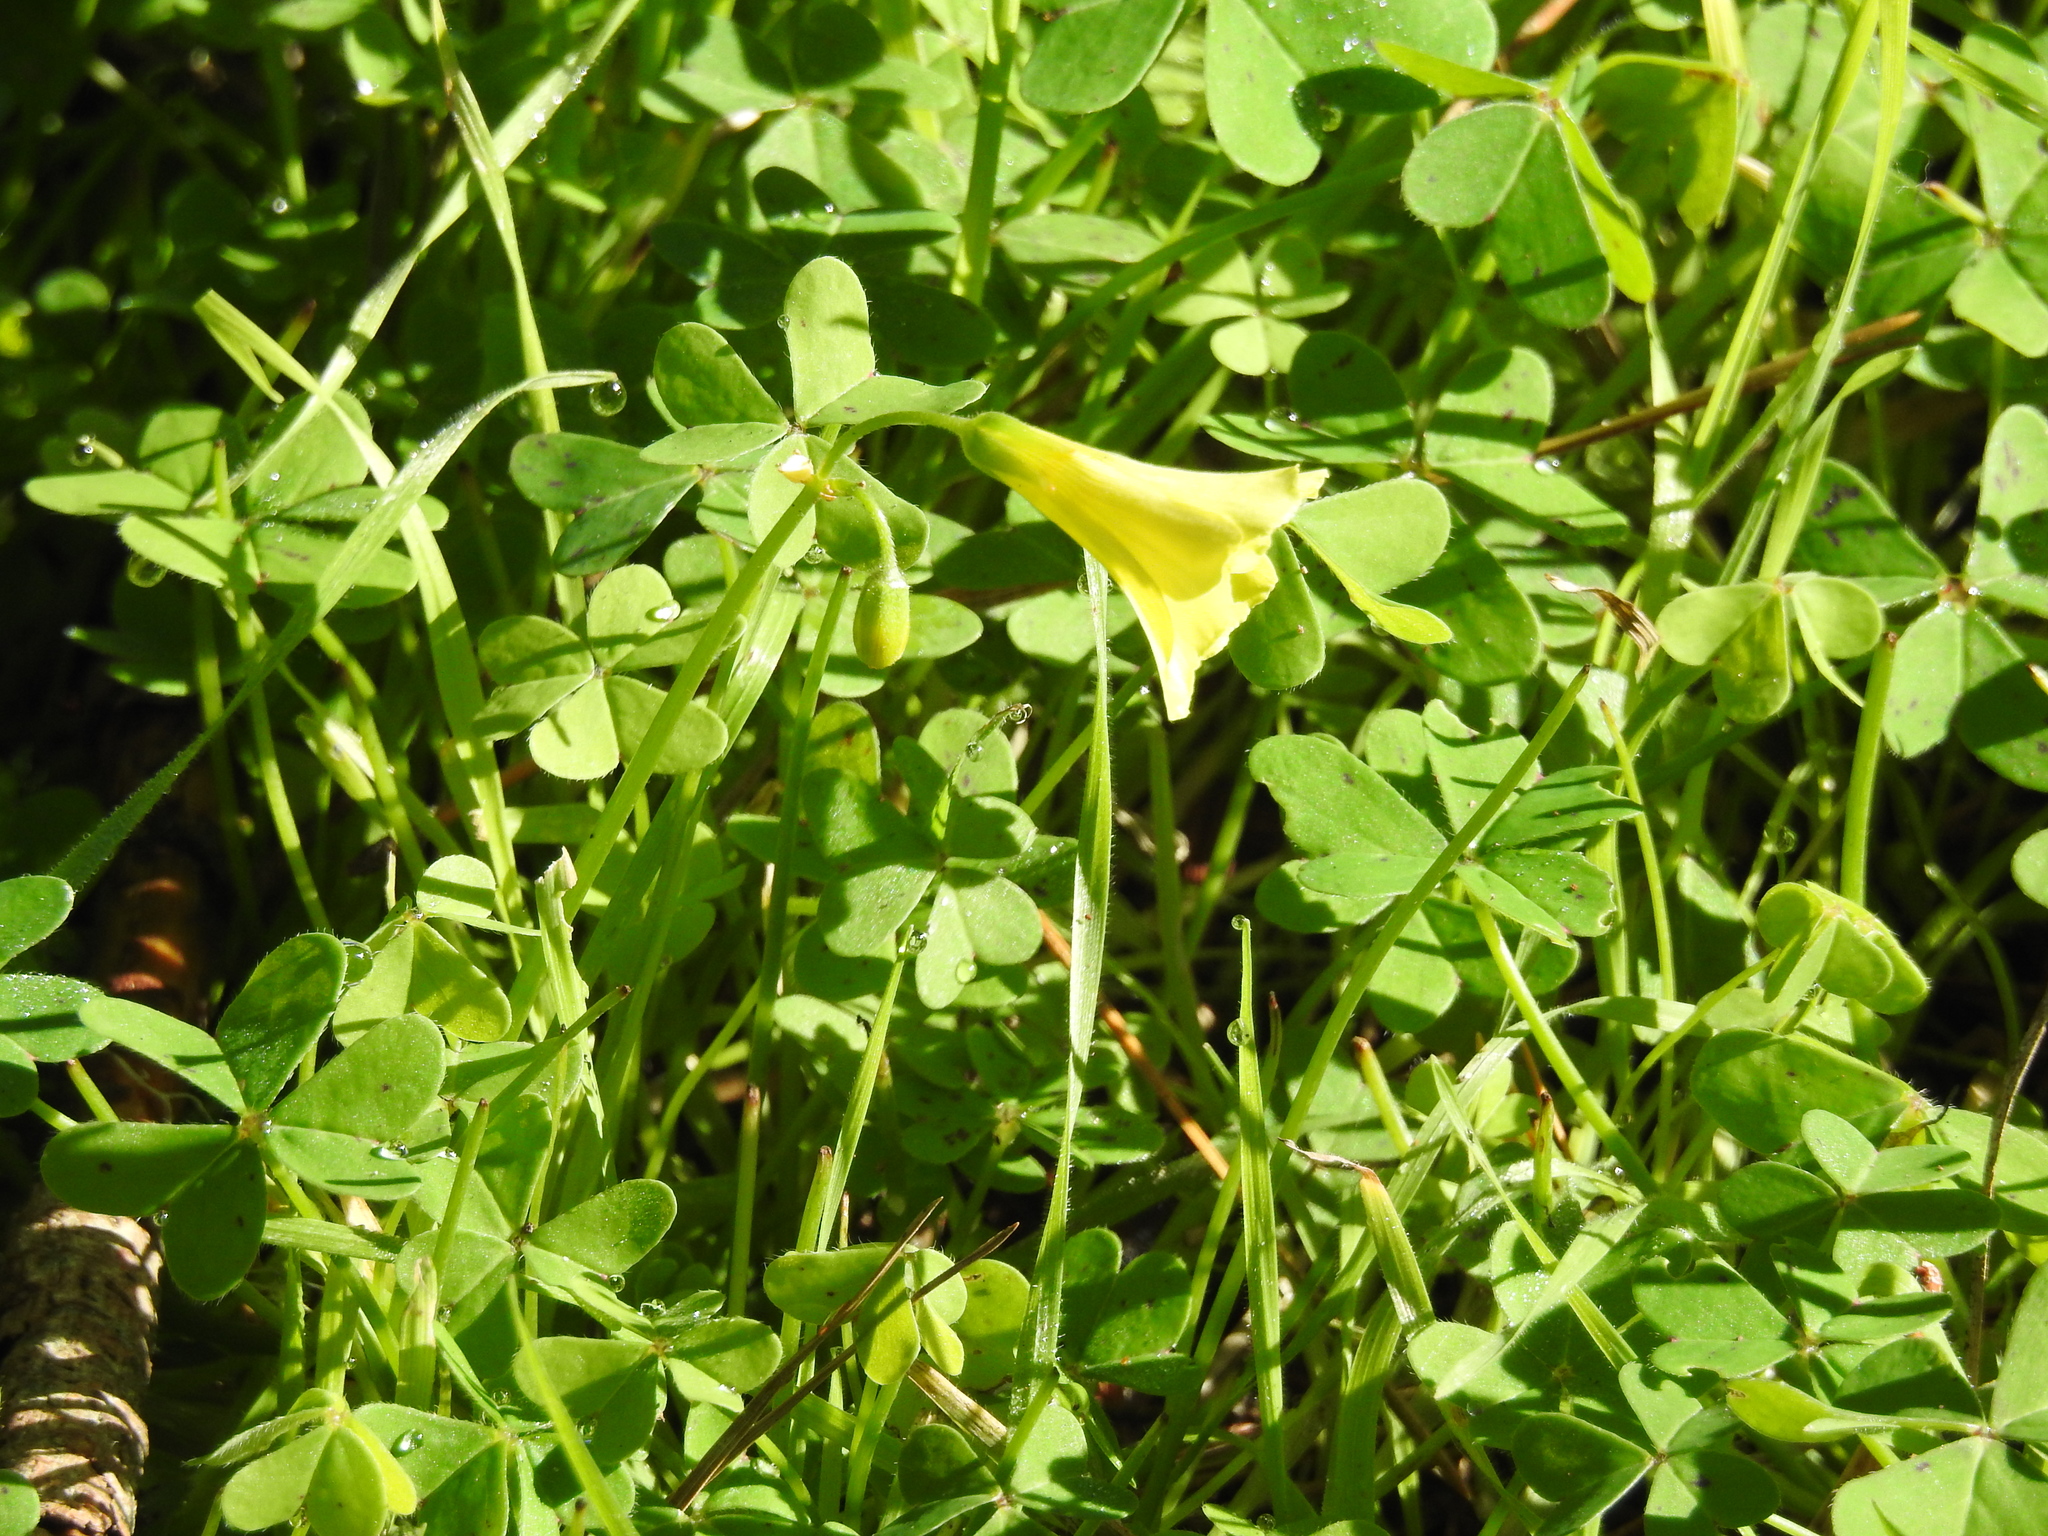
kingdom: Plantae
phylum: Tracheophyta
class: Magnoliopsida
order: Oxalidales
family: Oxalidaceae
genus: Oxalis
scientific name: Oxalis pes-caprae
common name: Bermuda-buttercup
